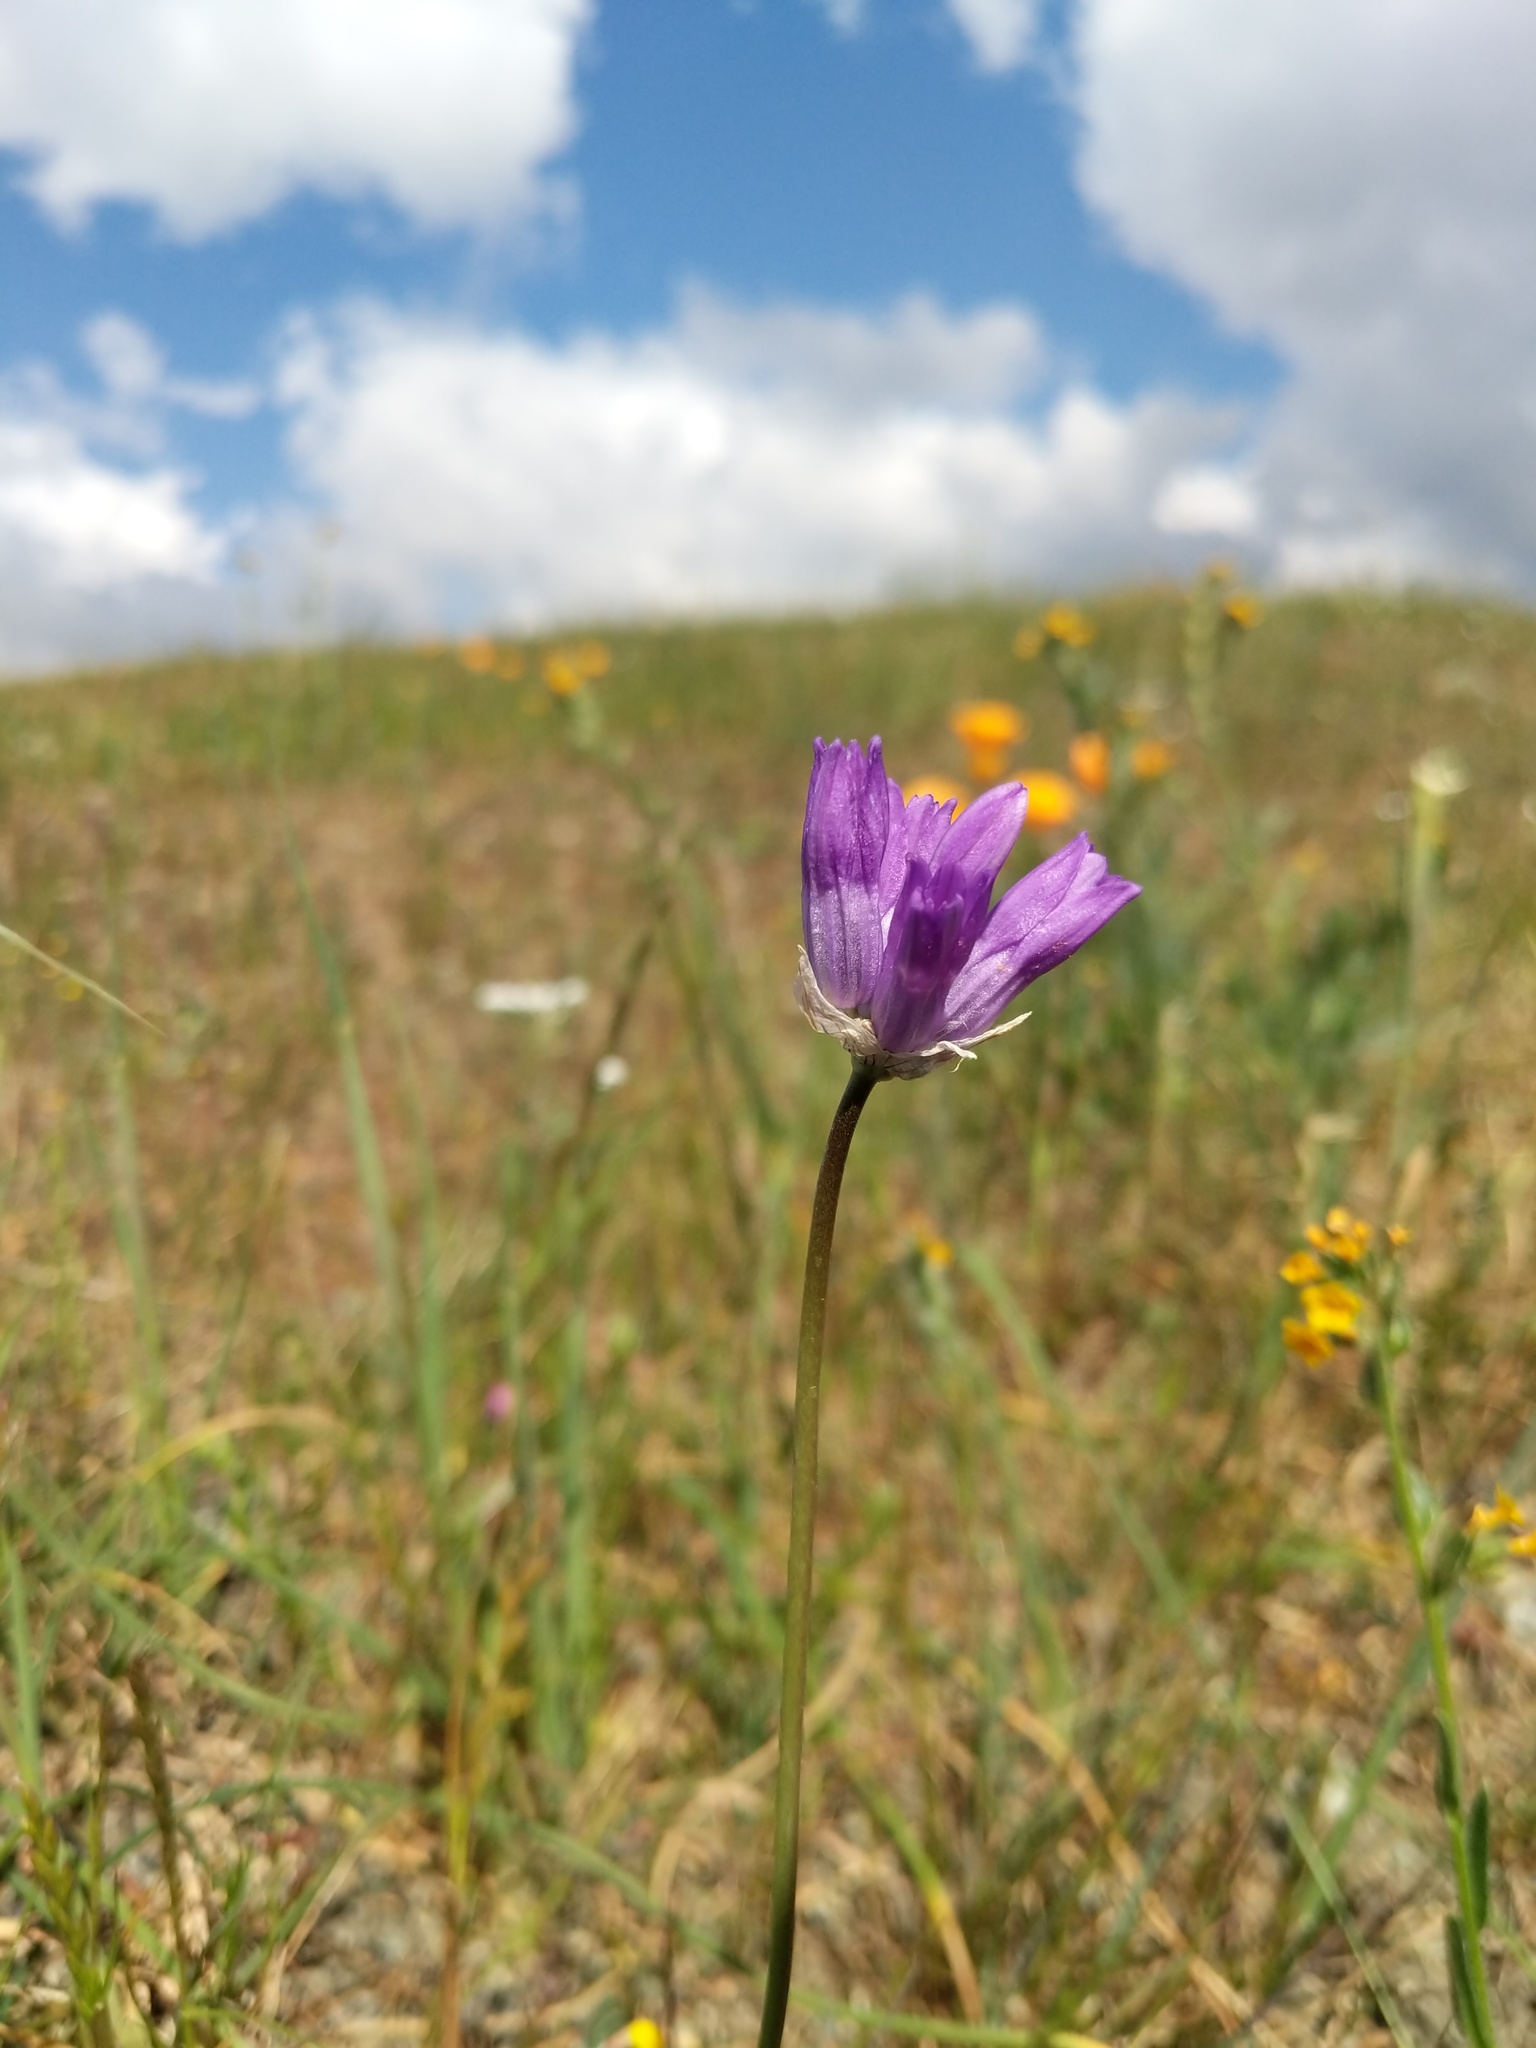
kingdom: Plantae
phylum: Tracheophyta
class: Liliopsida
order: Asparagales
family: Asparagaceae
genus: Dipterostemon
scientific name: Dipterostemon capitatus
